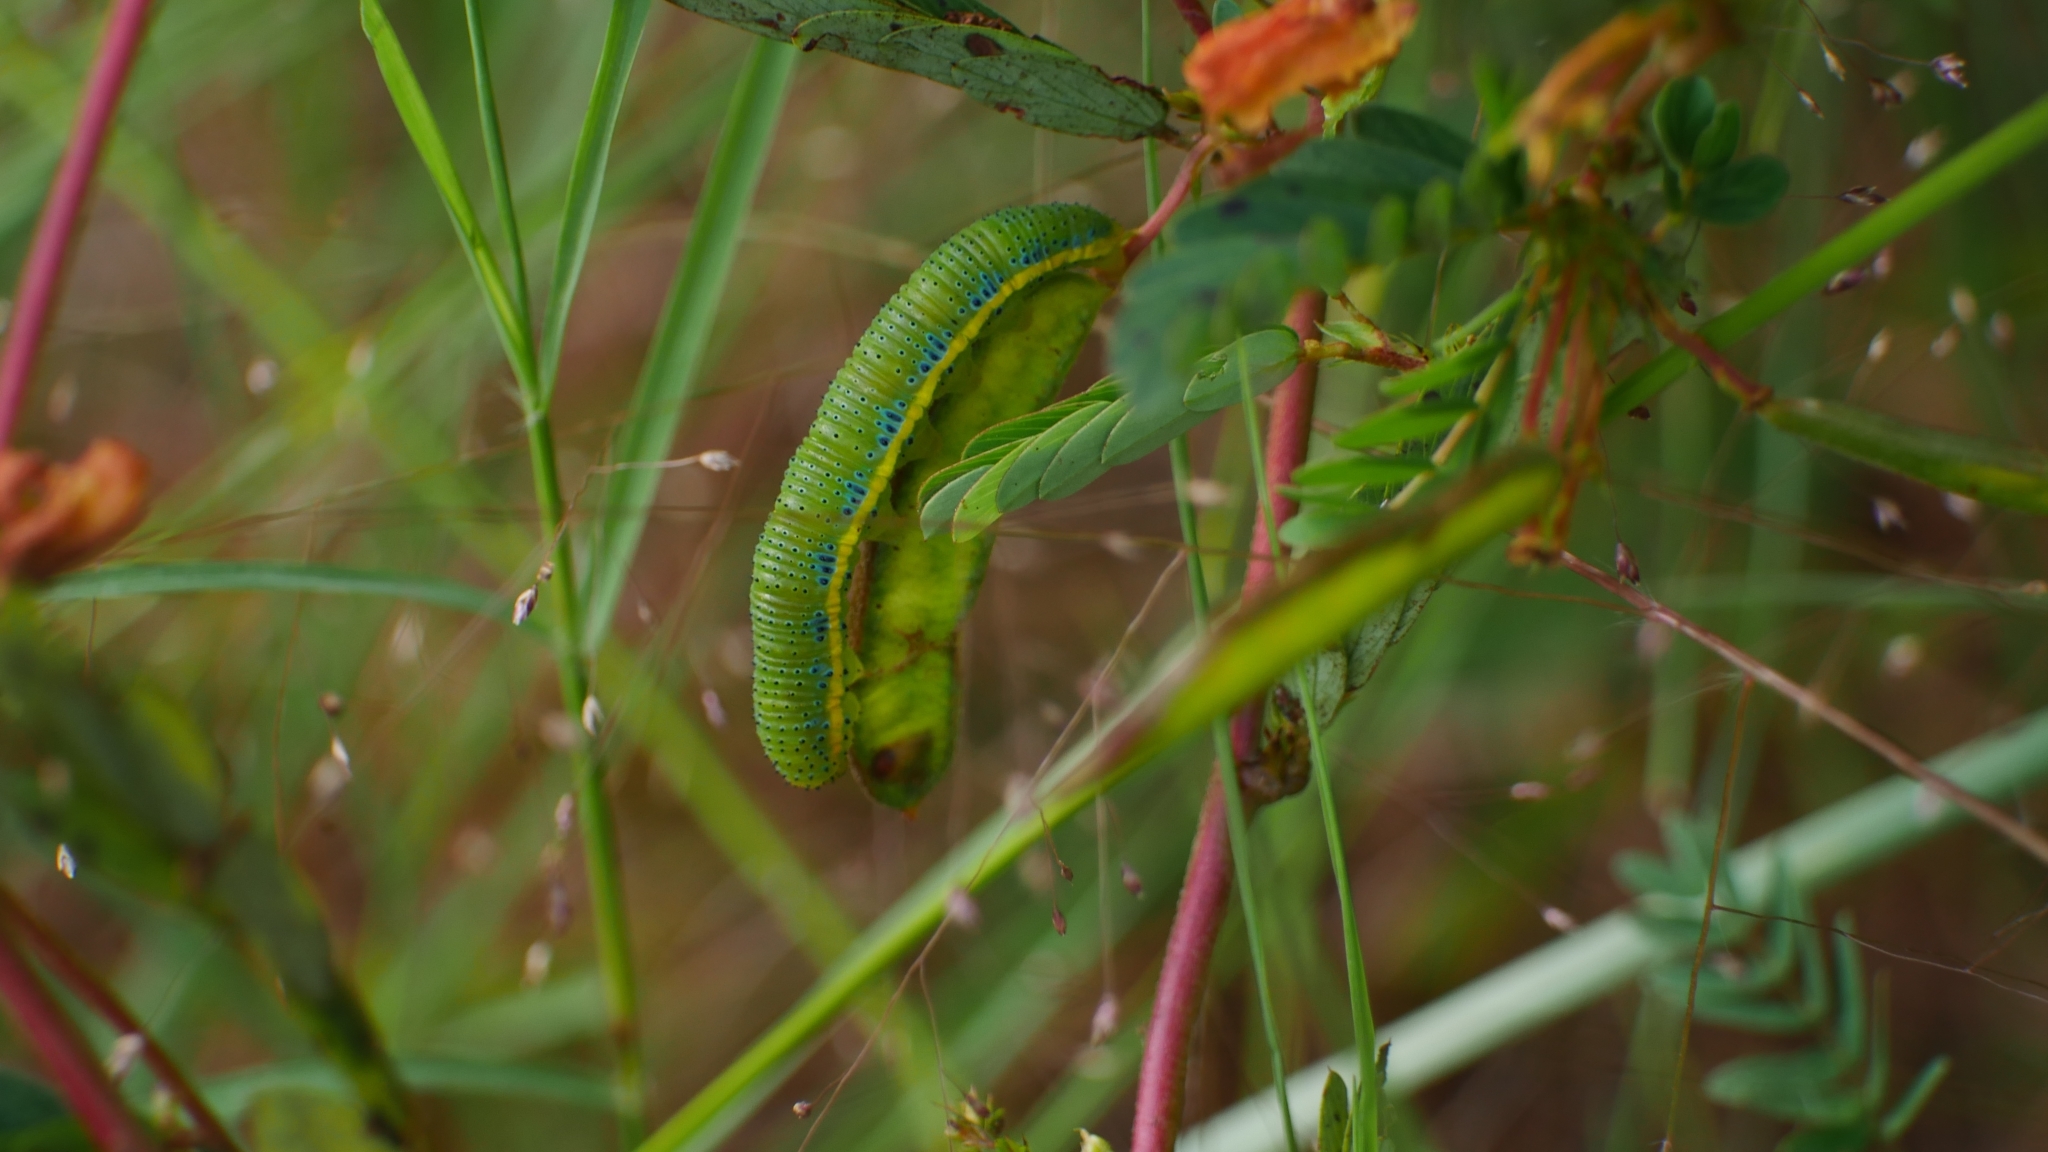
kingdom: Animalia
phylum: Arthropoda
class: Insecta
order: Lepidoptera
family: Pieridae
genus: Phoebis
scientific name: Phoebis sennae
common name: Cloudless sulphur
